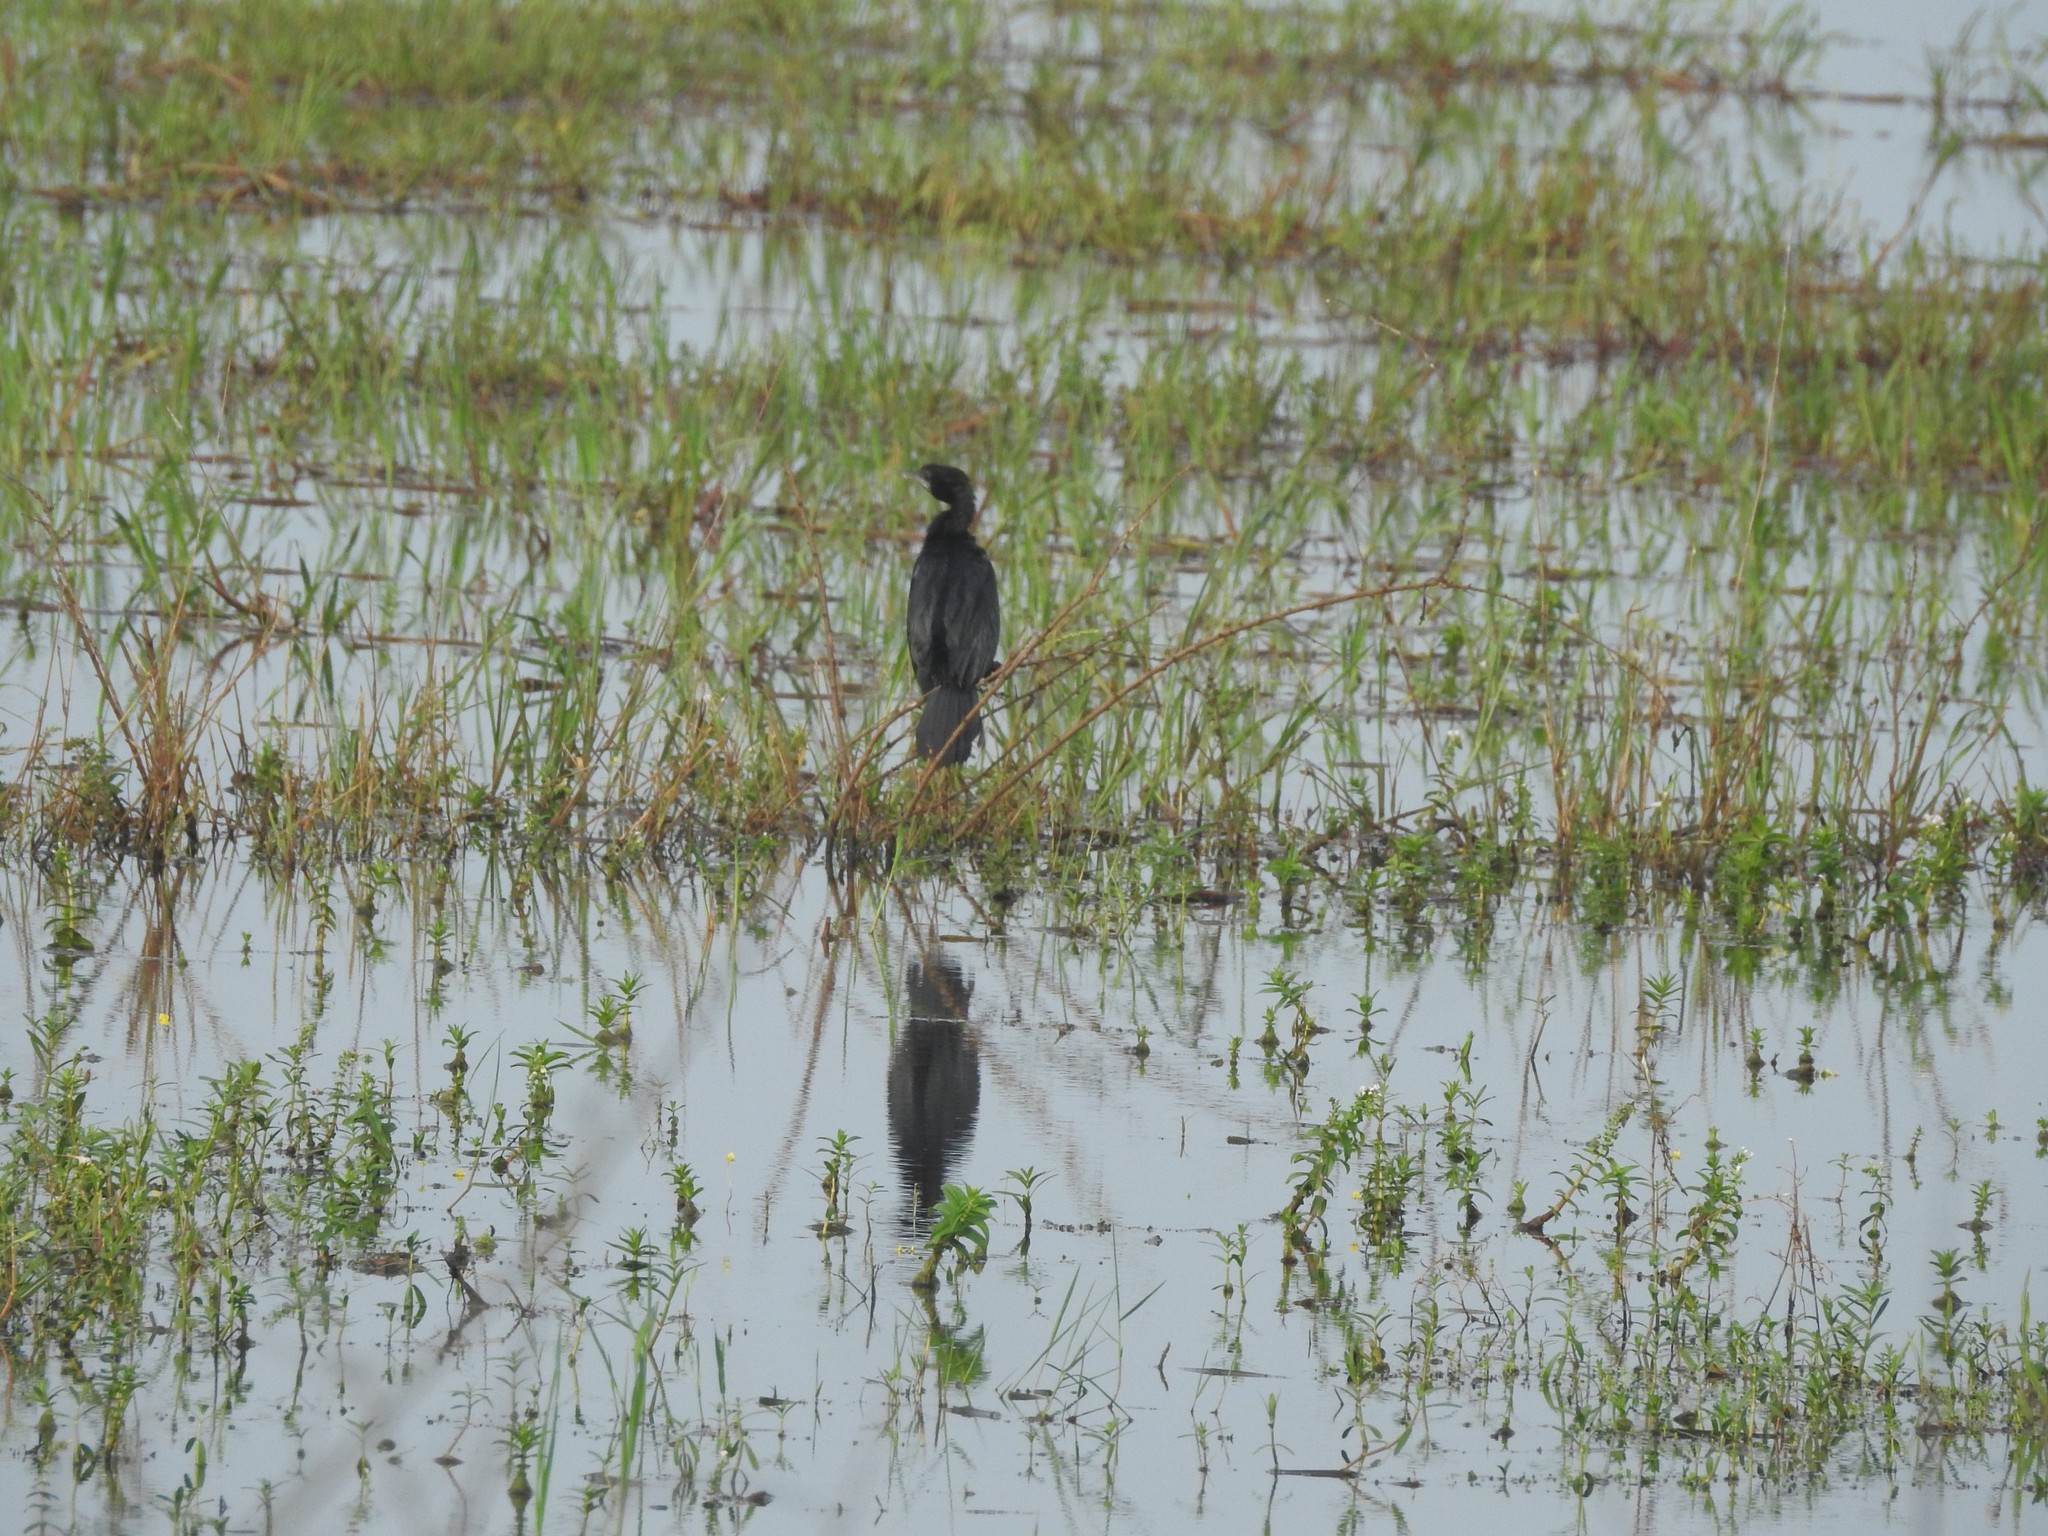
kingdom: Animalia
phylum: Chordata
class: Aves
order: Suliformes
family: Phalacrocoracidae
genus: Microcarbo
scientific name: Microcarbo niger
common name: Little cormorant
